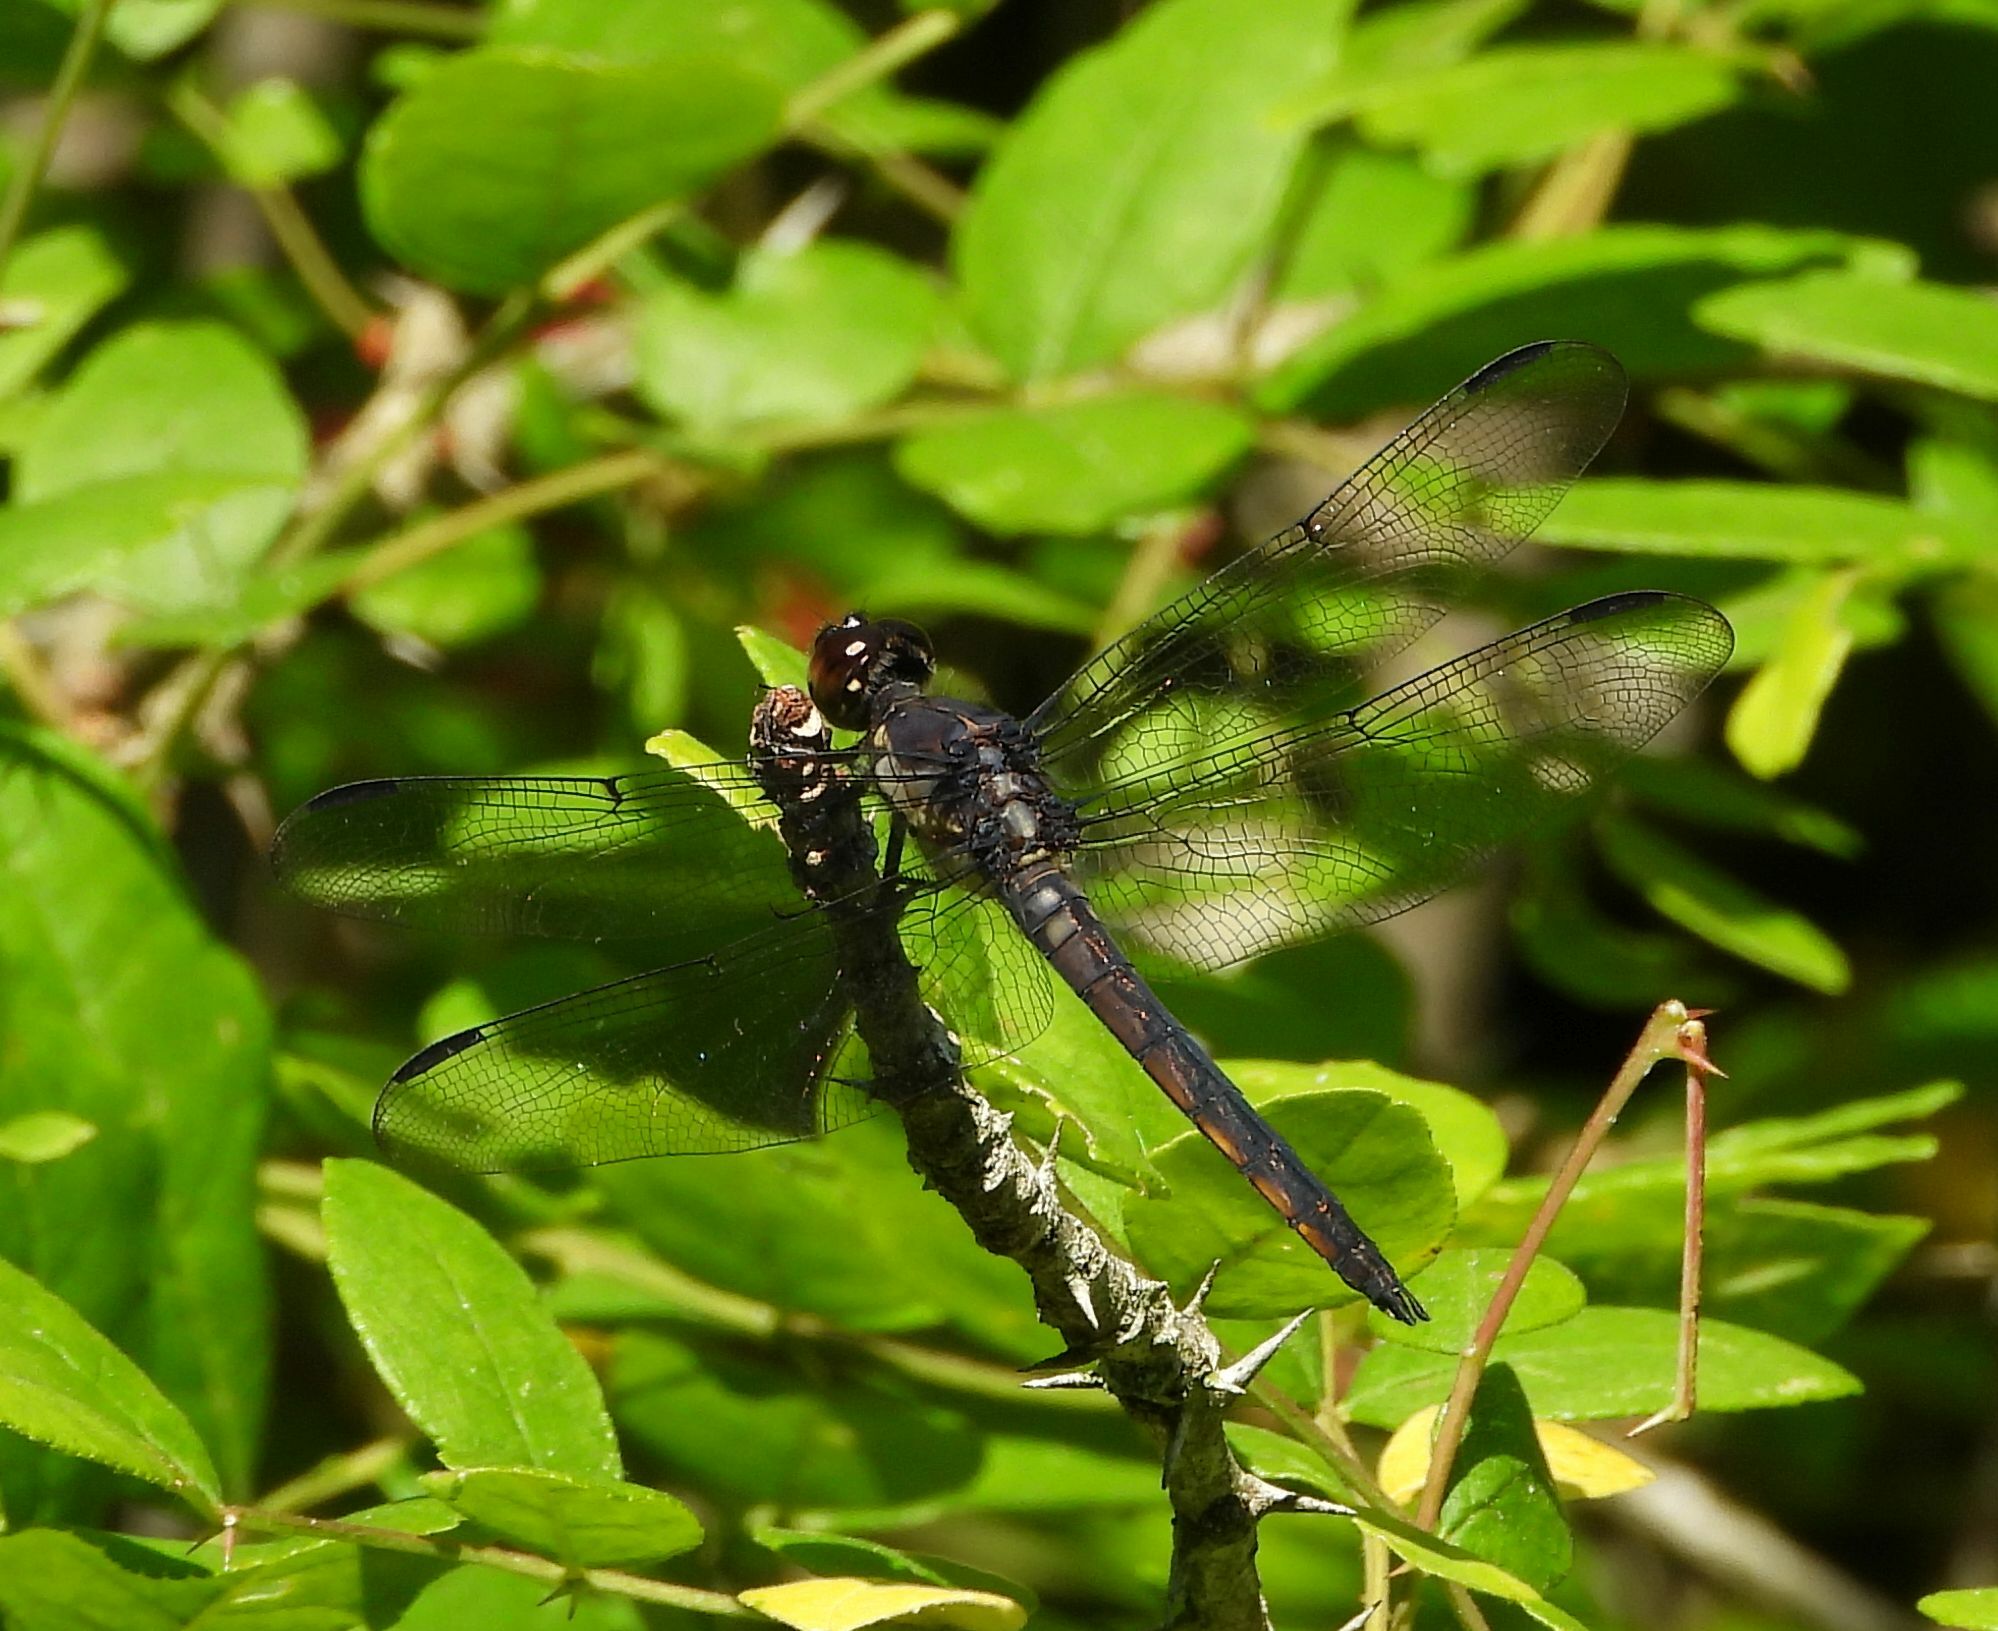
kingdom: Animalia
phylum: Arthropoda
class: Insecta
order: Odonata
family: Libellulidae
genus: Libellula
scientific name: Libellula incesta
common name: Slaty skimmer
